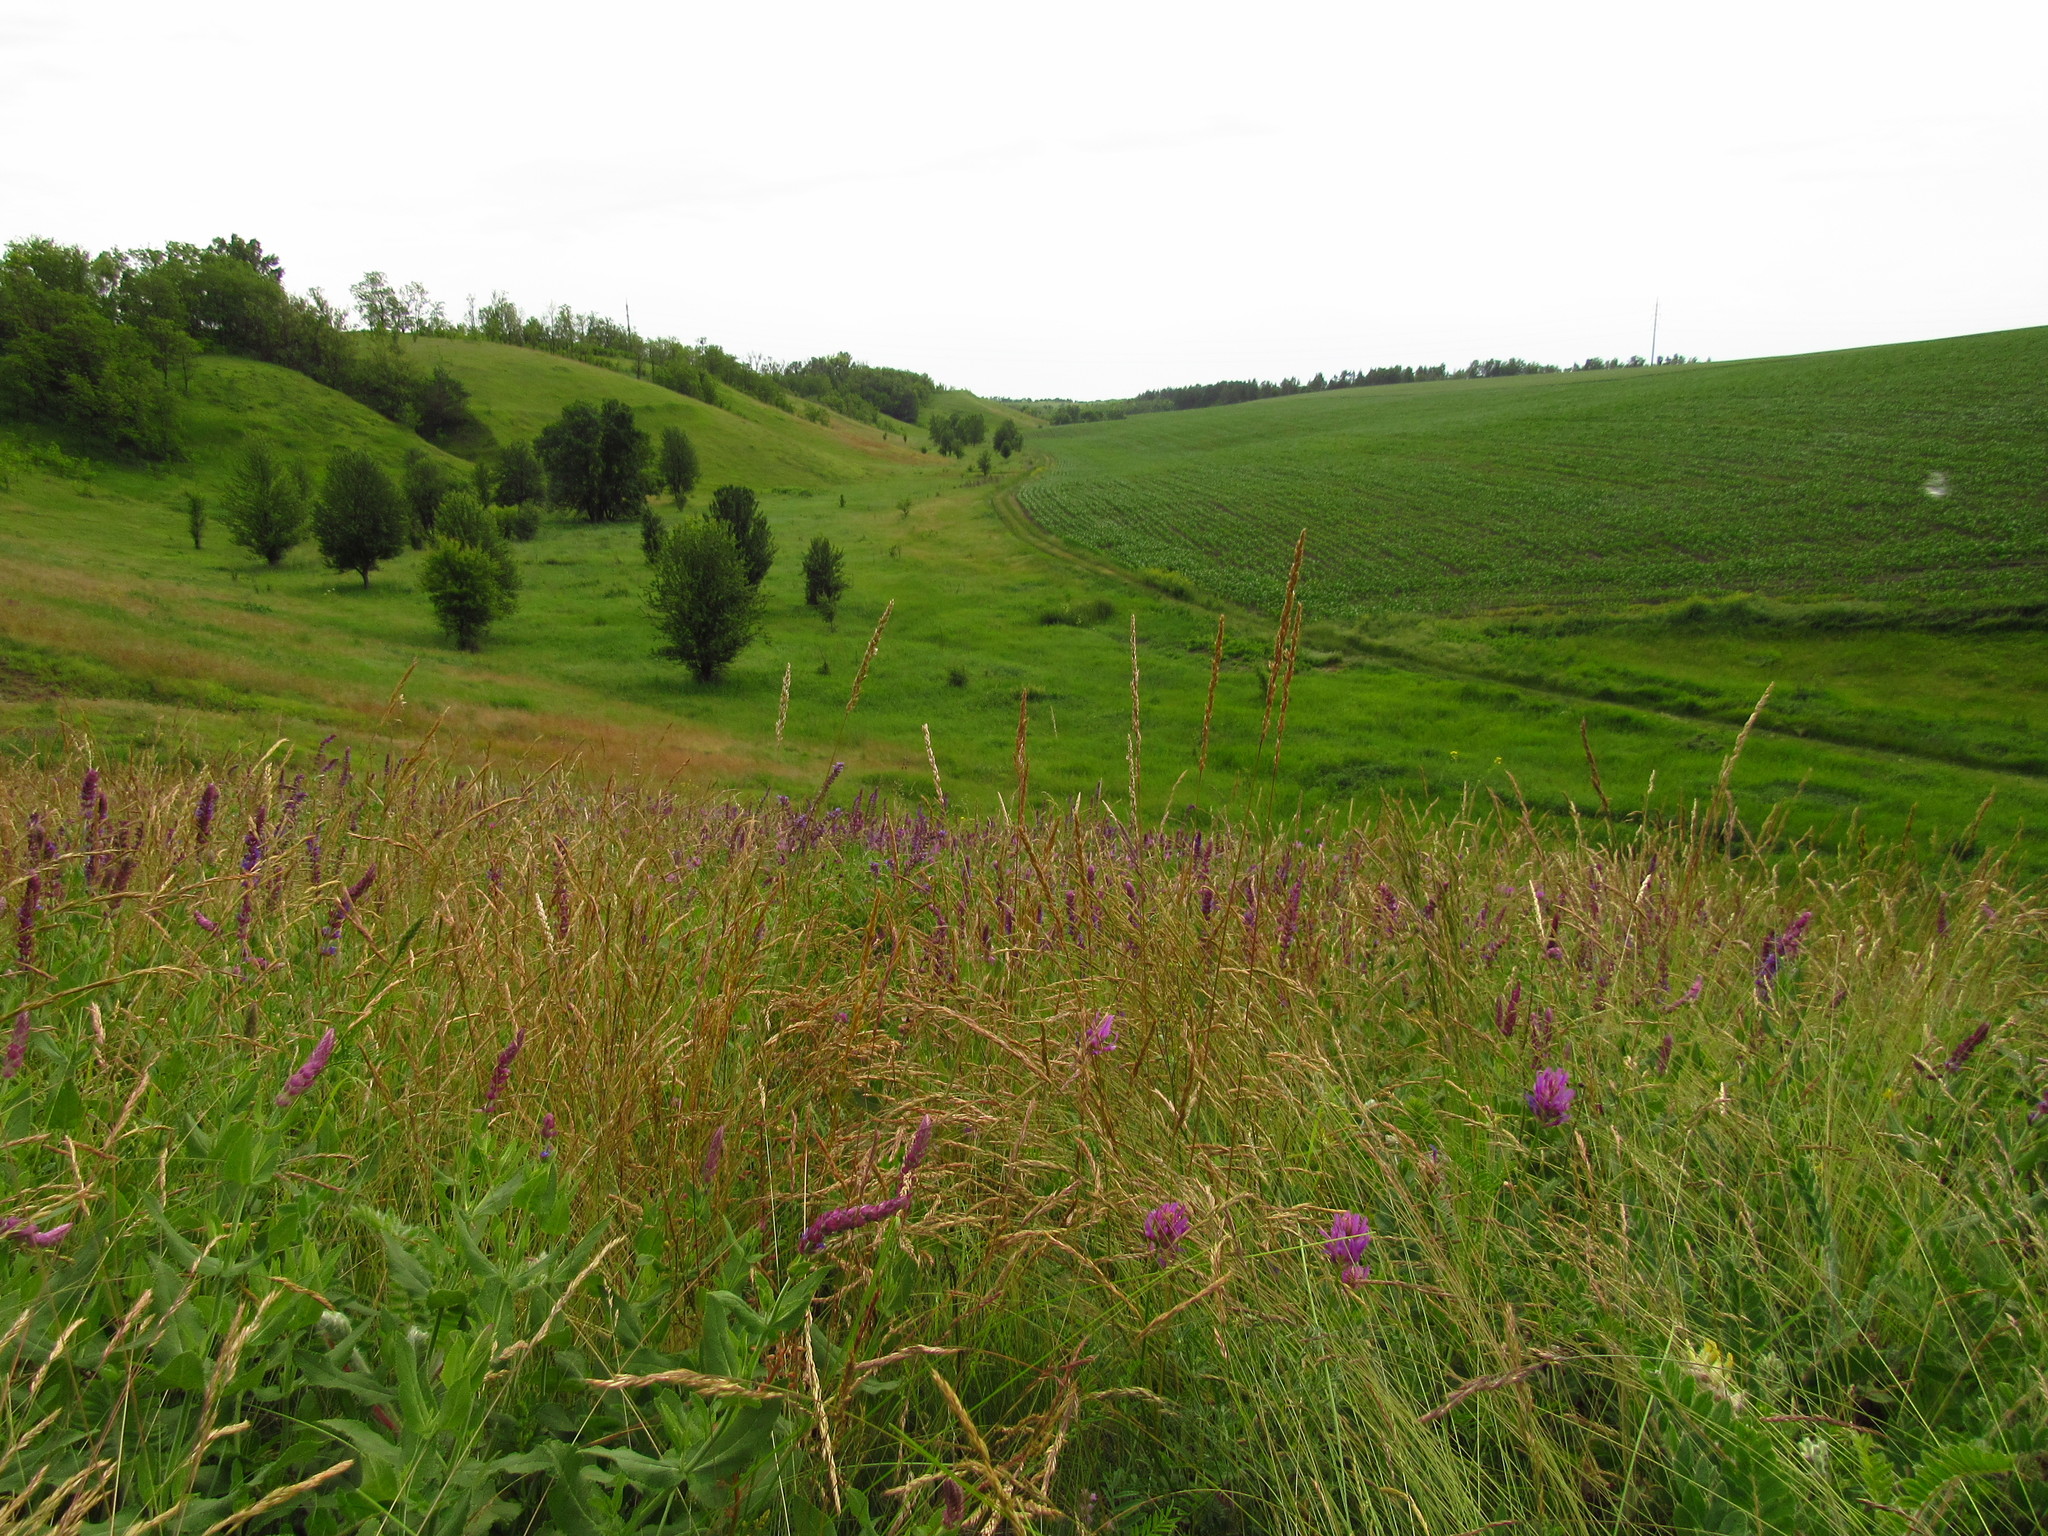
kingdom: Plantae
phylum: Tracheophyta
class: Magnoliopsida
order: Fabales
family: Fabaceae
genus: Astragalus
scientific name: Astragalus onobrychis
